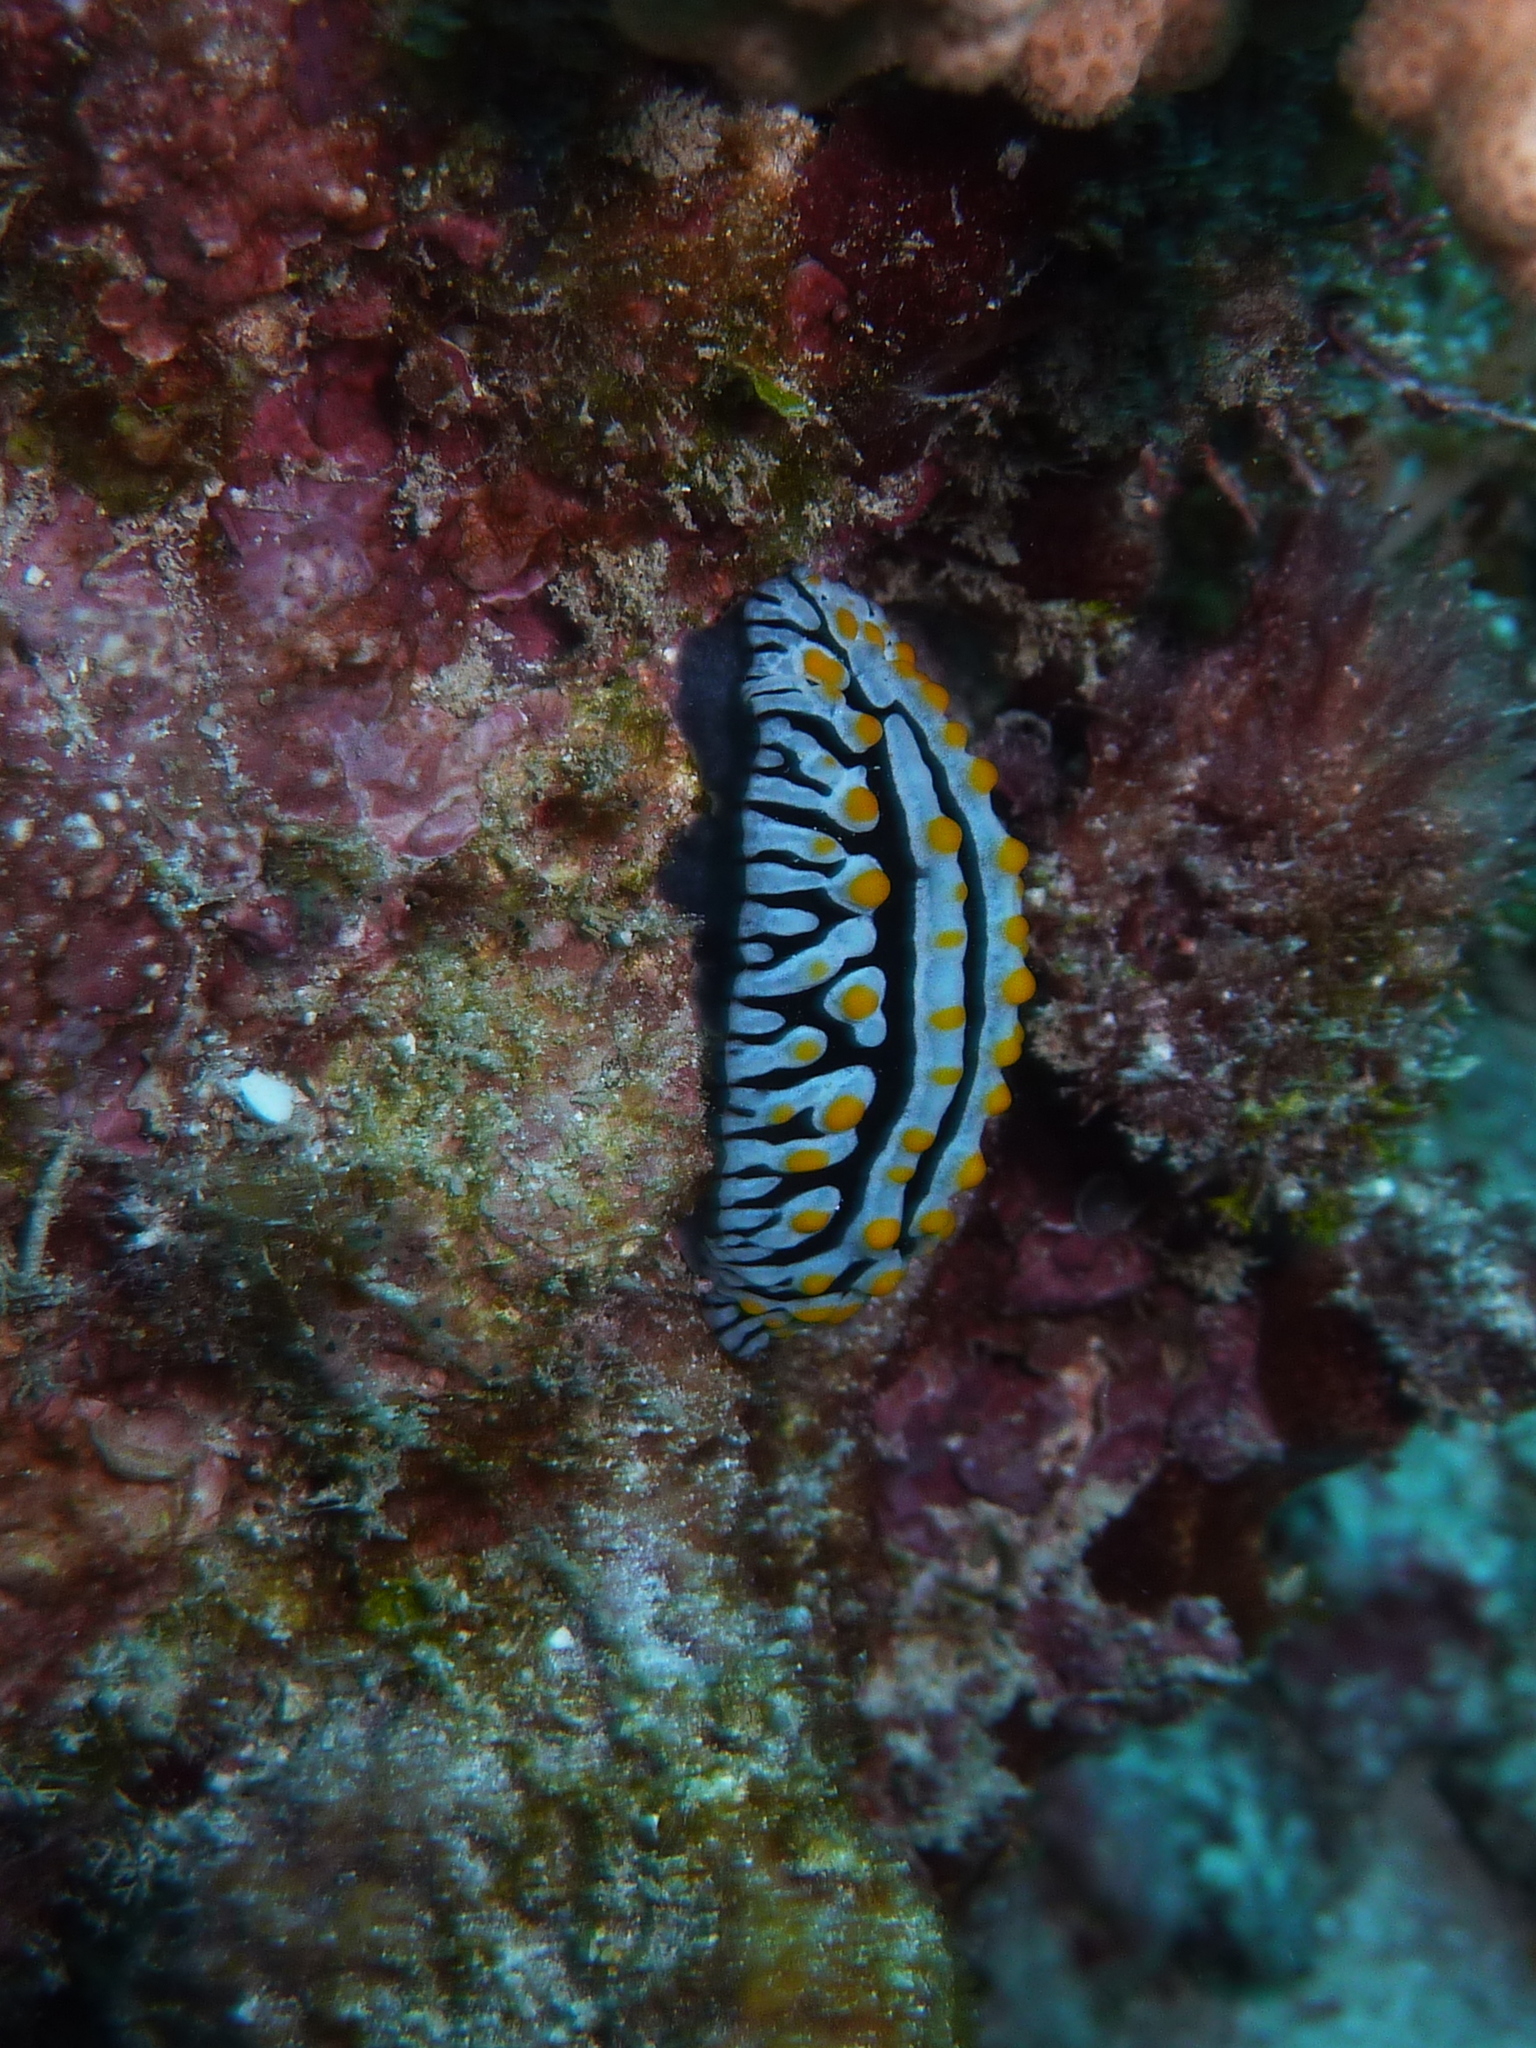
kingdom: Animalia
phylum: Mollusca
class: Gastropoda
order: Nudibranchia
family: Phyllidiidae
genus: Phyllidia
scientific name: Phyllidia varicosa
